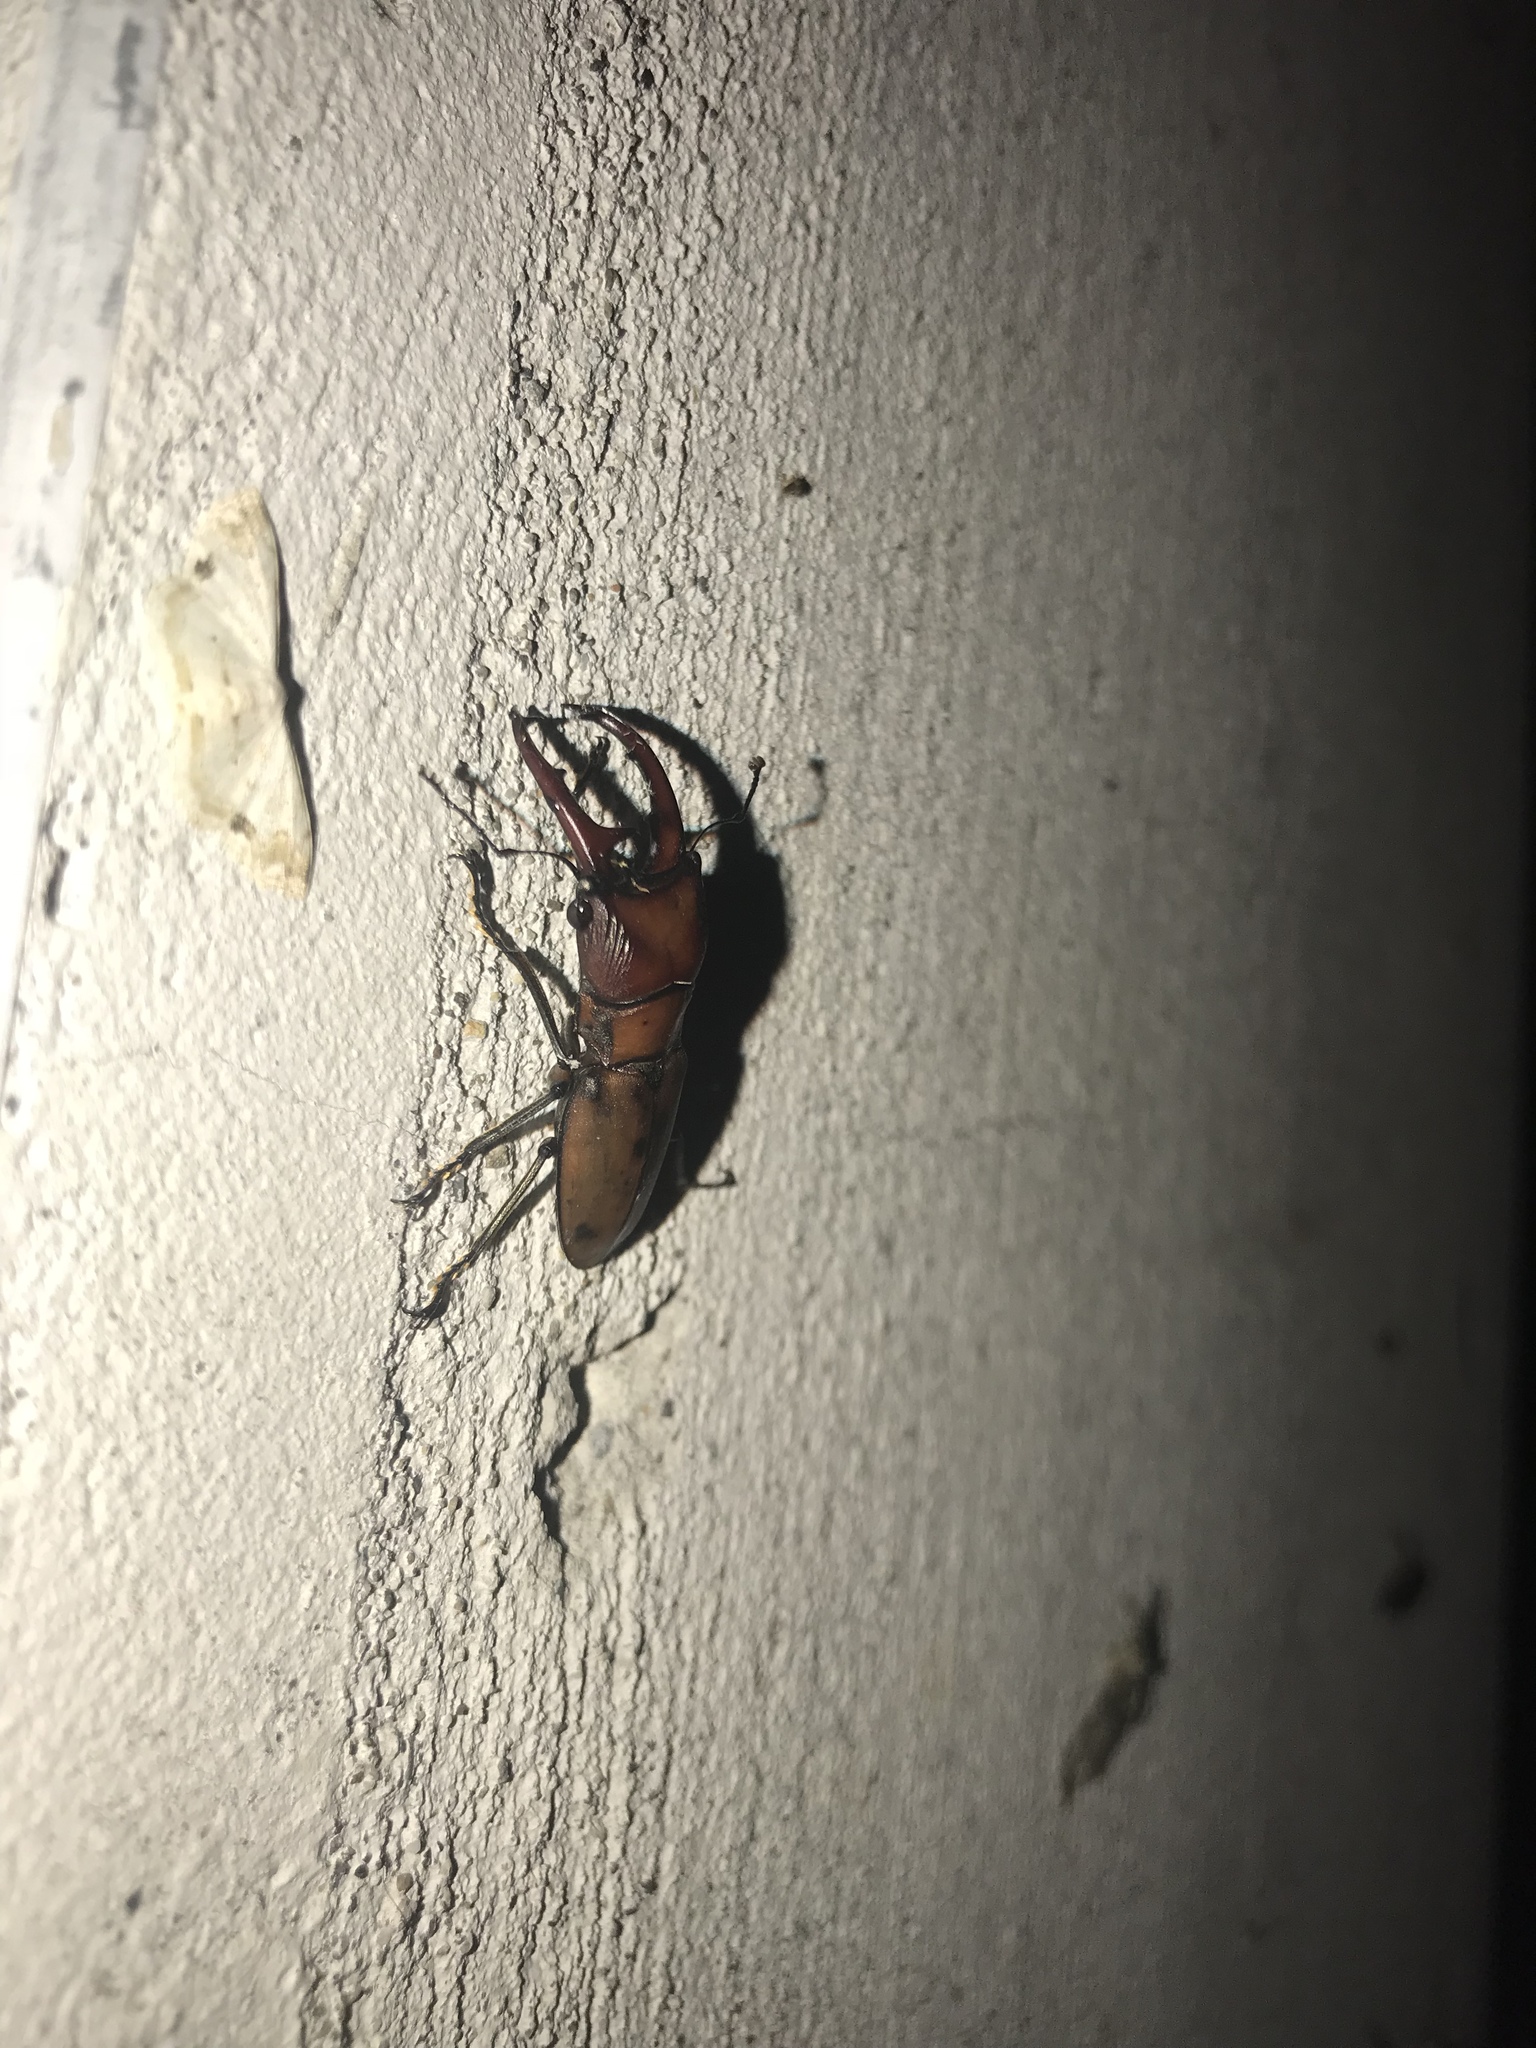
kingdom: Animalia
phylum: Arthropoda
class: Insecta
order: Coleoptera
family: Lucanidae
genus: Cyclommatinus
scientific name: Cyclommatinus asahinai
